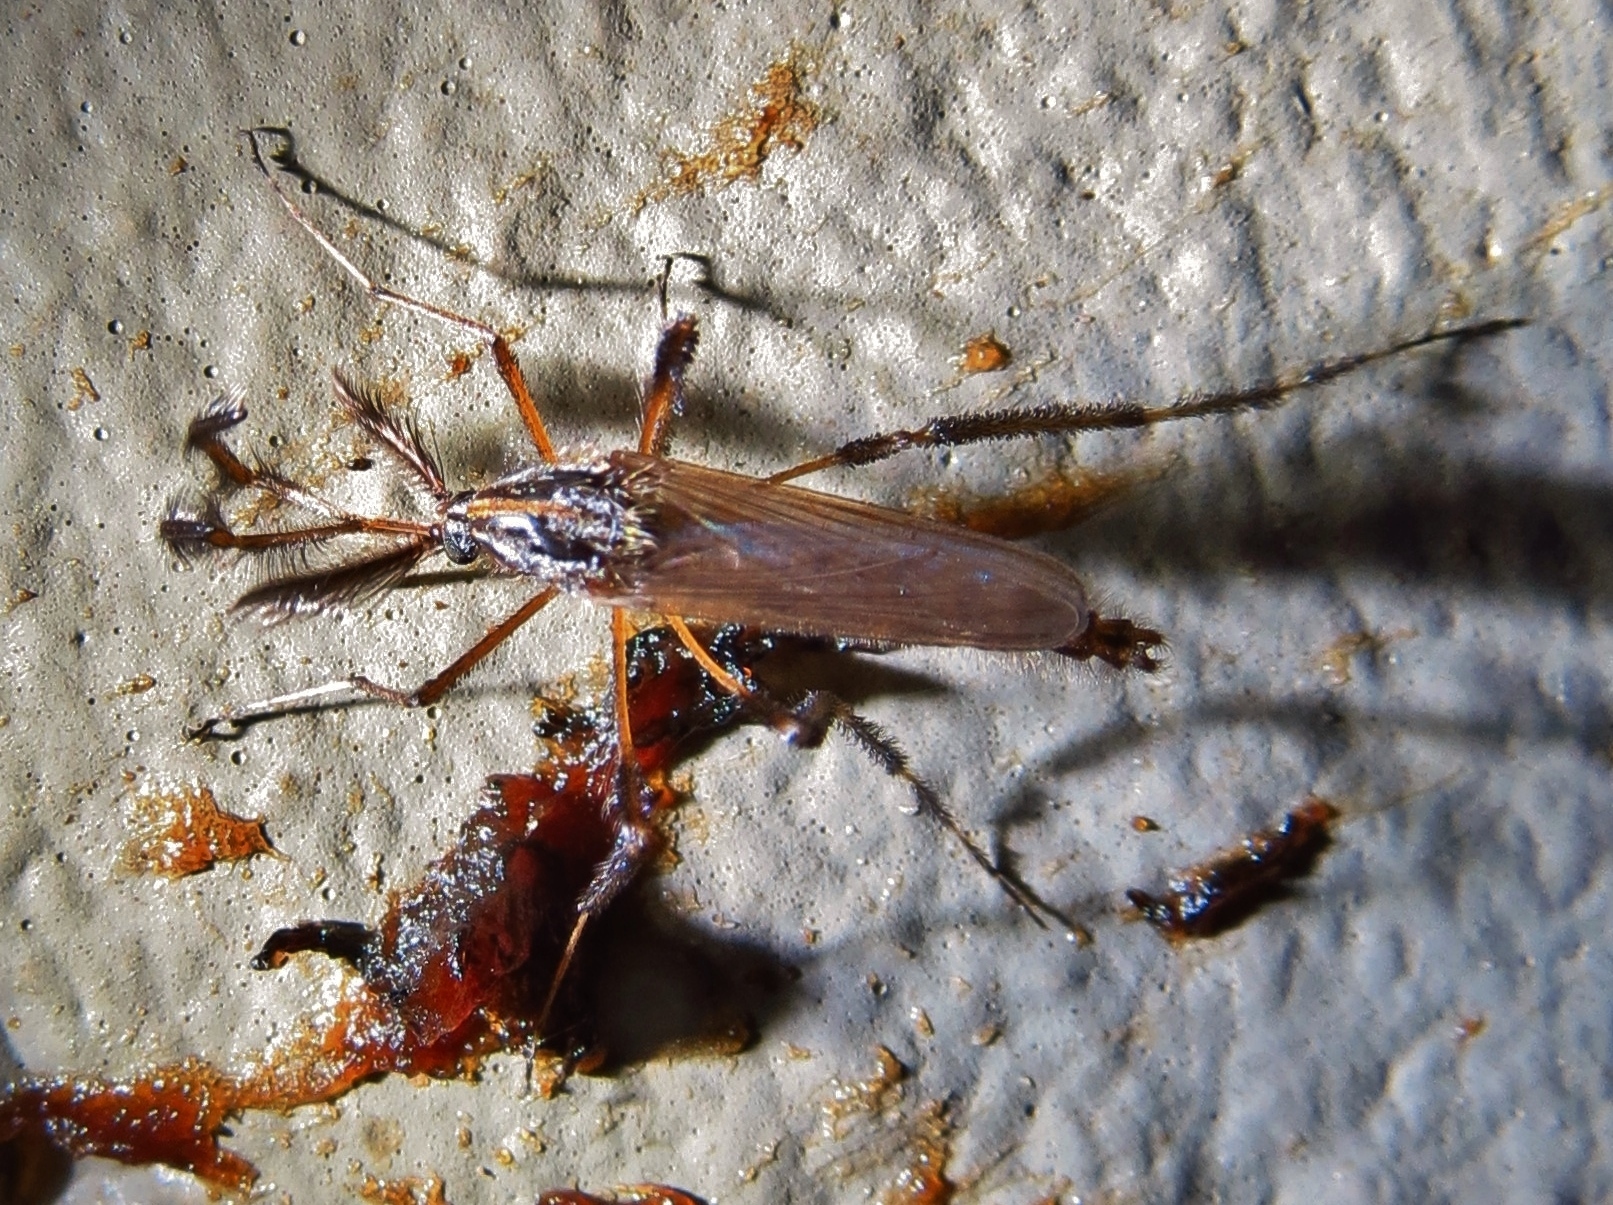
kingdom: Animalia
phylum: Arthropoda
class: Insecta
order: Diptera
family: Culicidae
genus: Psorophora
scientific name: Psorophora ciliata
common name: Gallinipper
